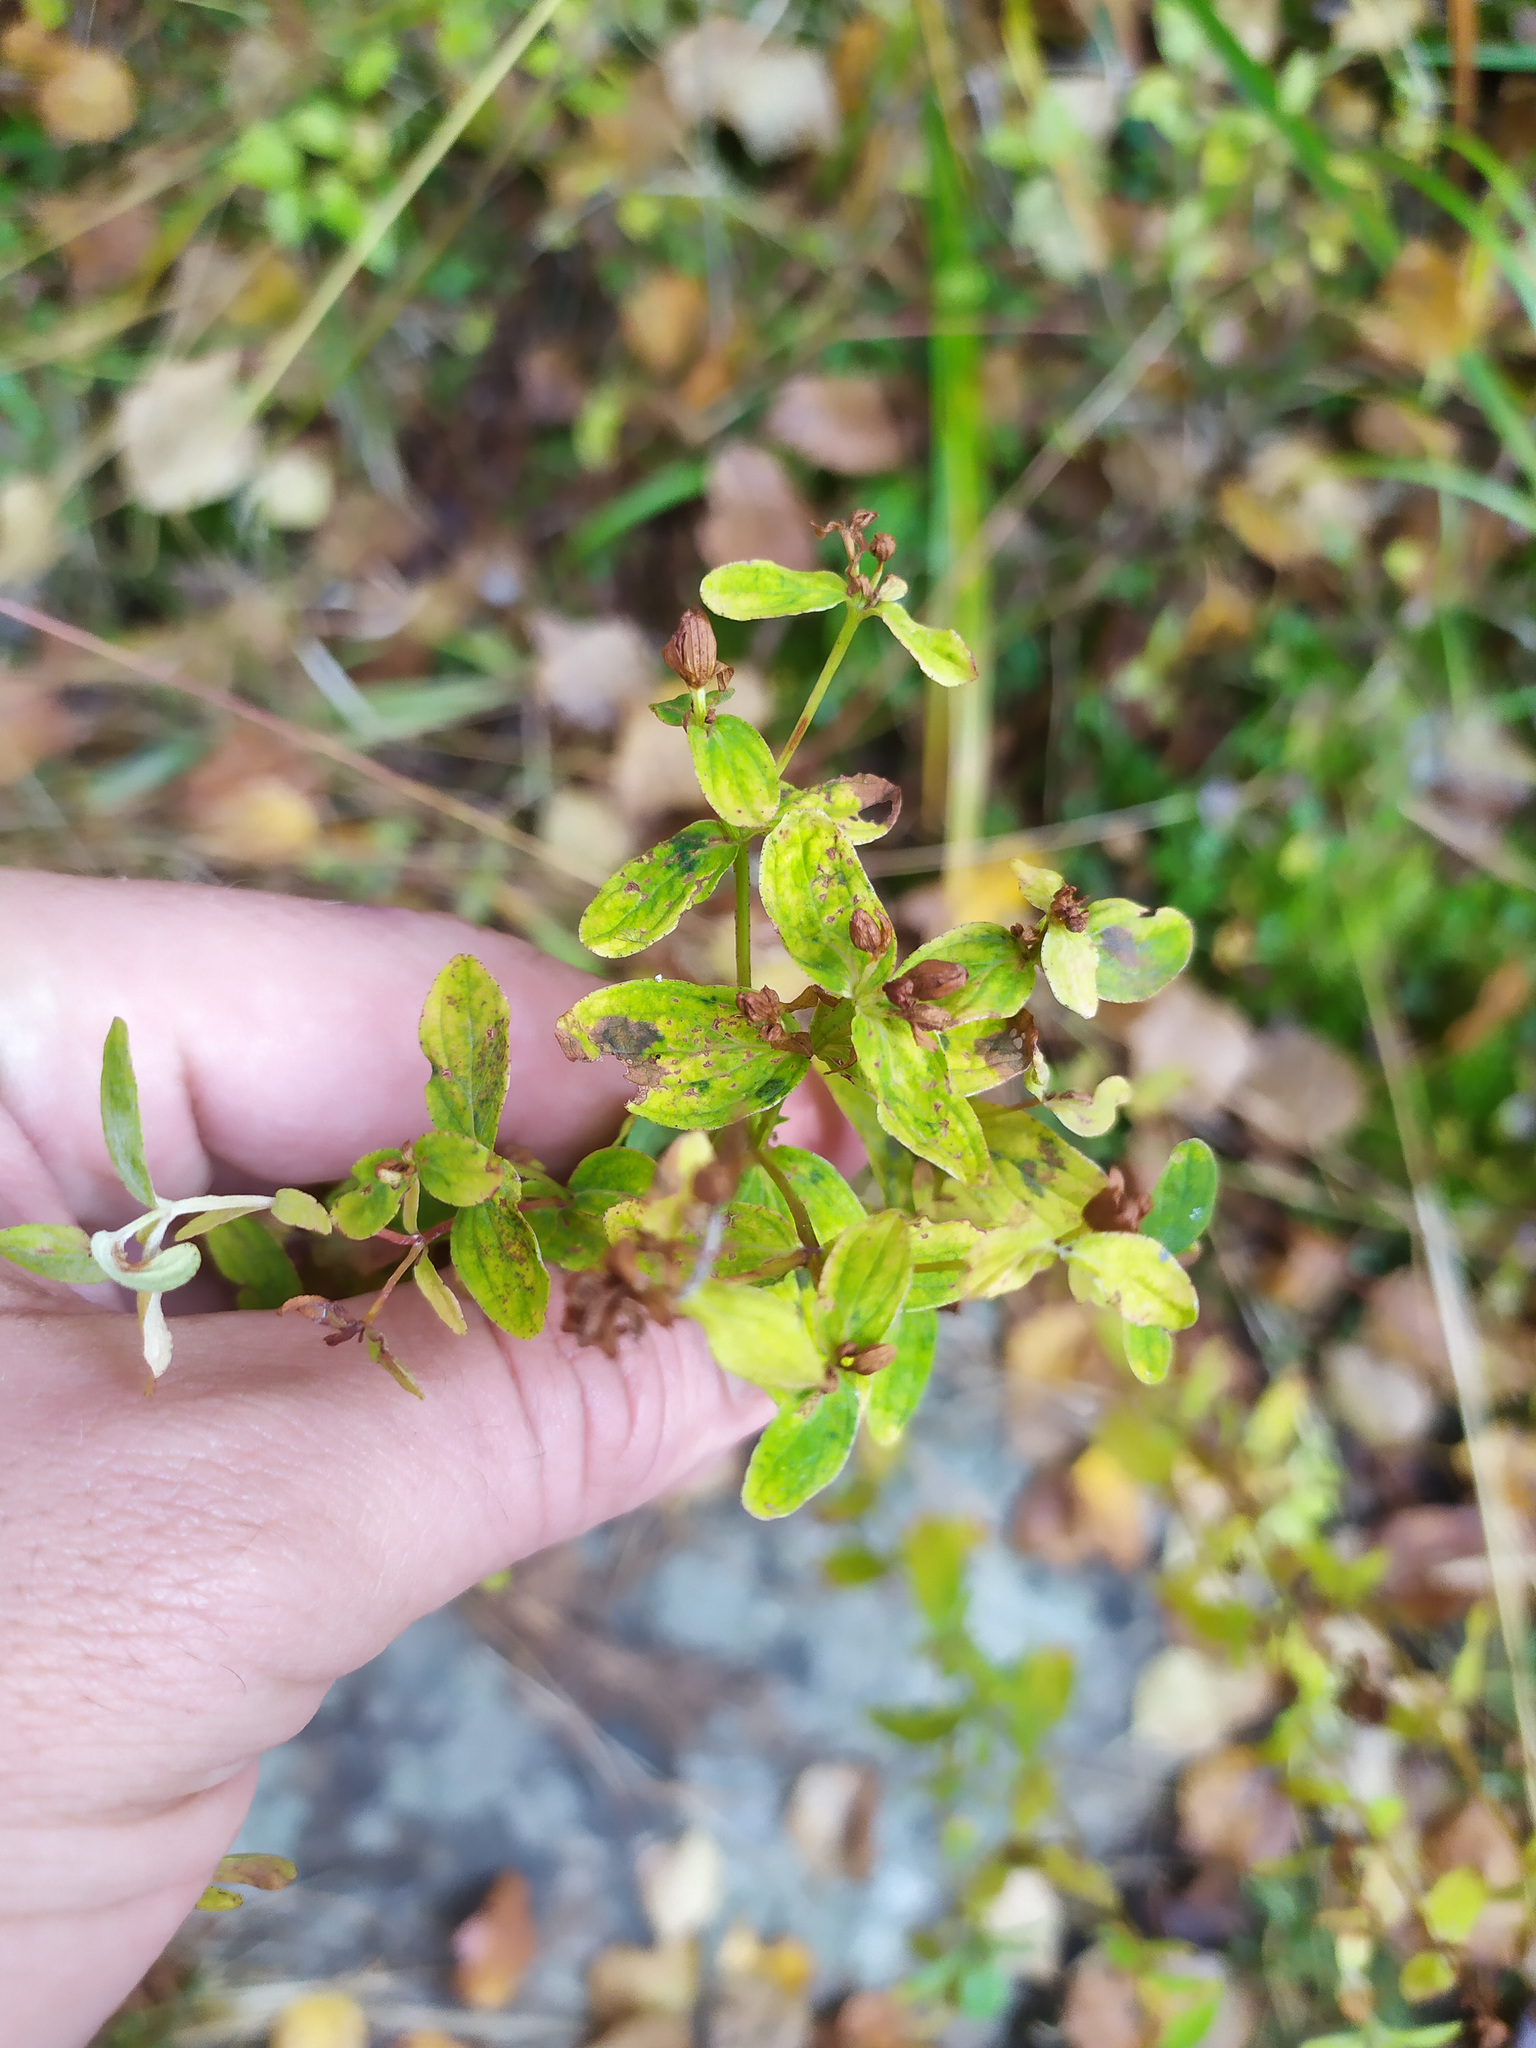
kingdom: Plantae
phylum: Tracheophyta
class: Magnoliopsida
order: Malpighiales
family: Hypericaceae
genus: Hypericum
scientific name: Hypericum perforatum
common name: Common st. johnswort
